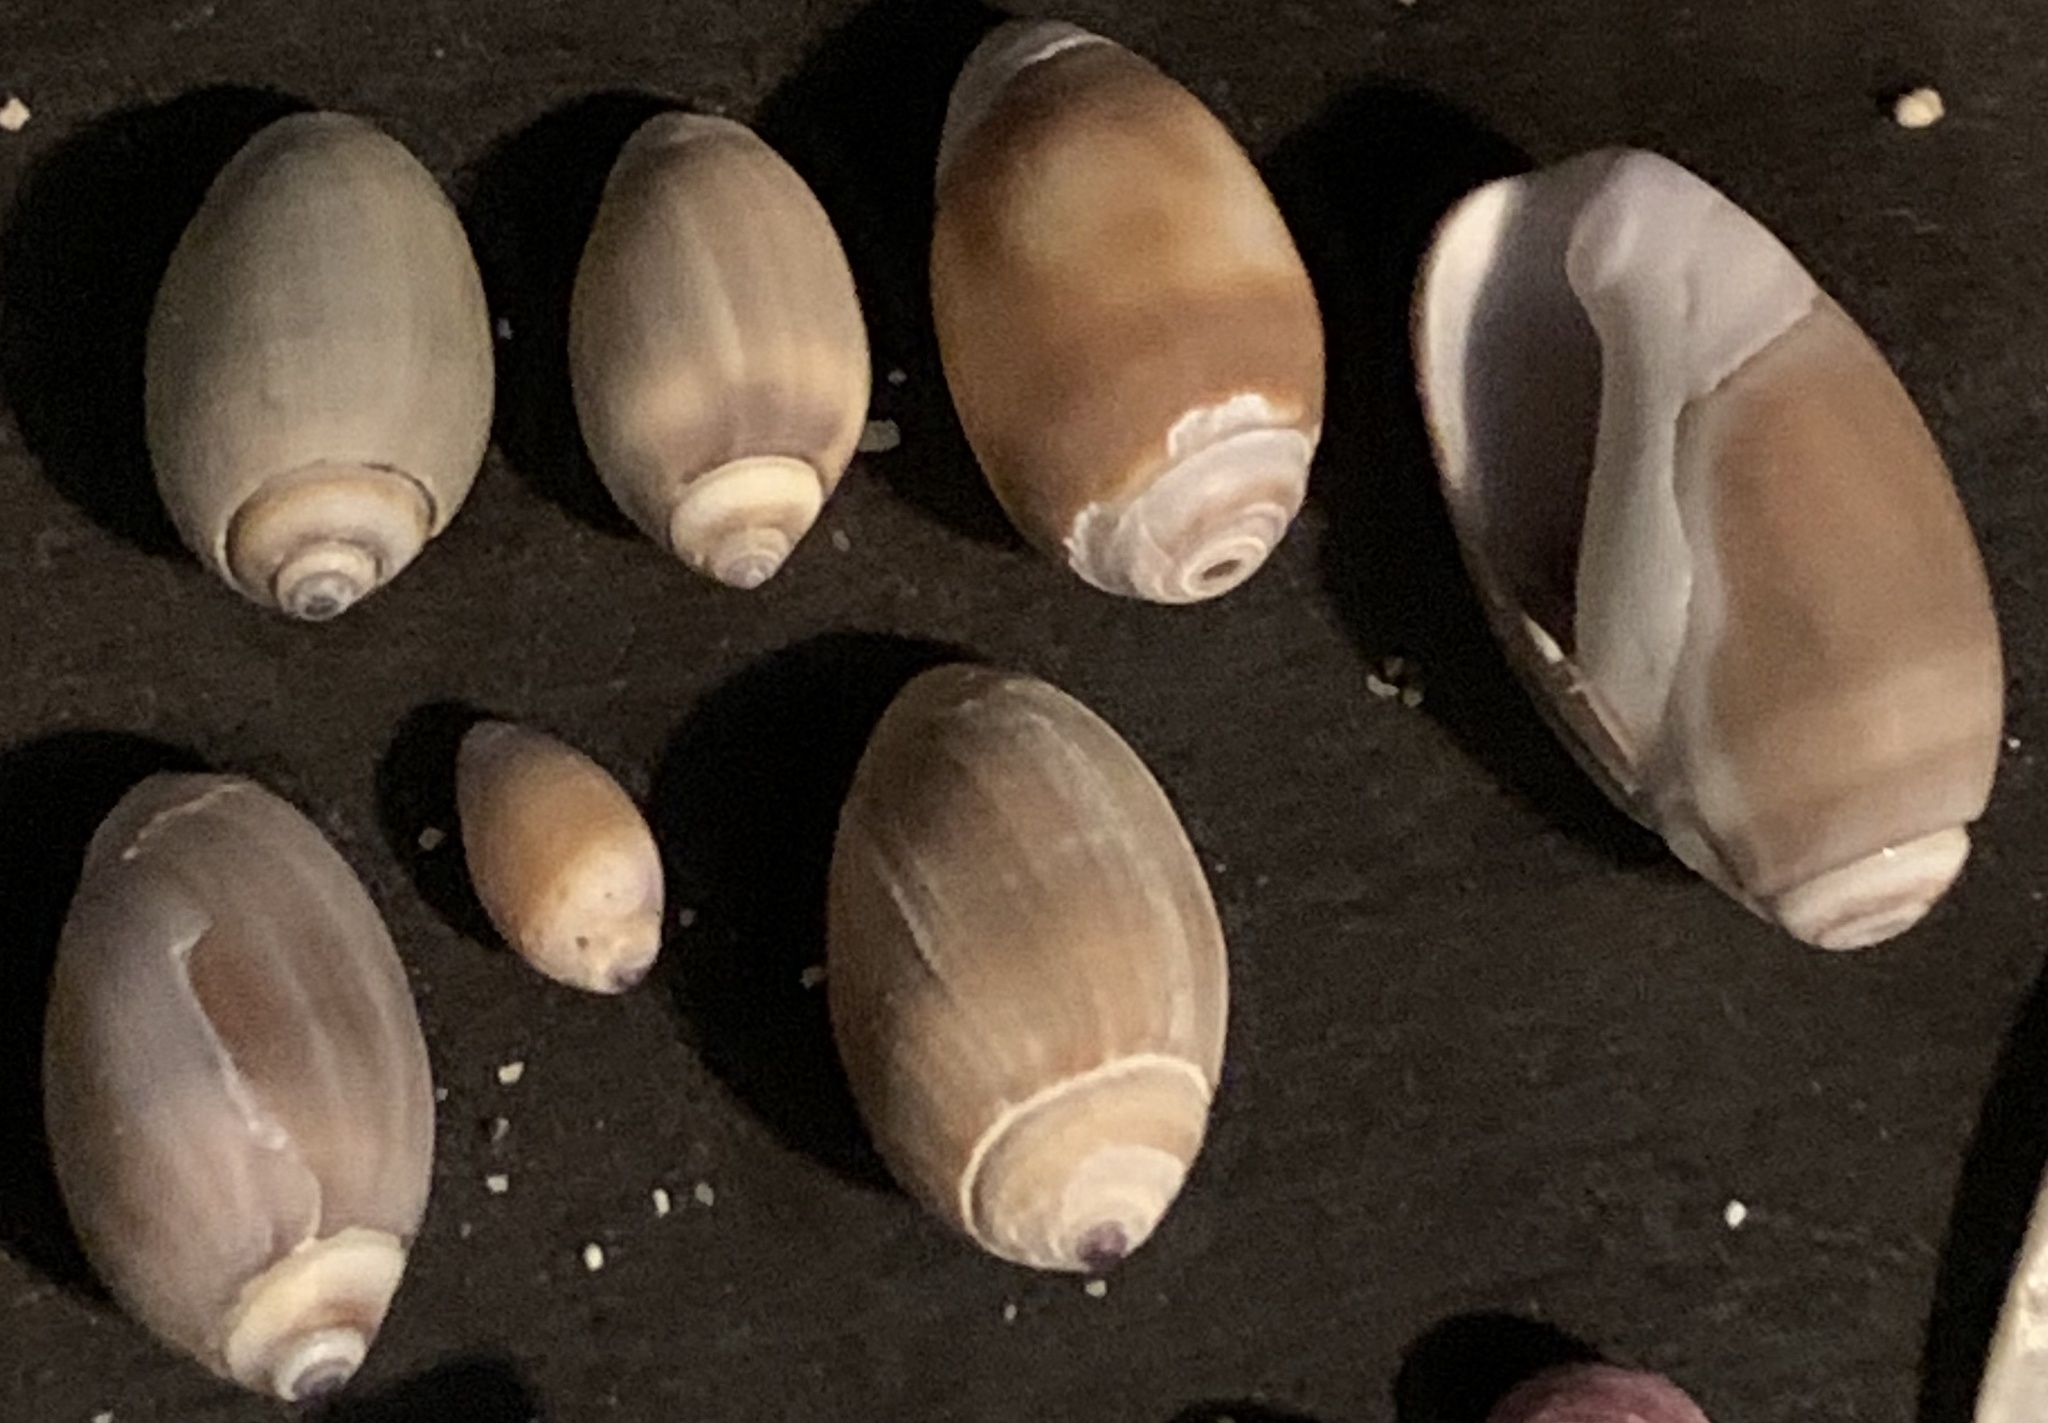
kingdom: Animalia
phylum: Mollusca
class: Gastropoda
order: Neogastropoda
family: Olividae
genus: Callianax
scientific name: Callianax biplicata
